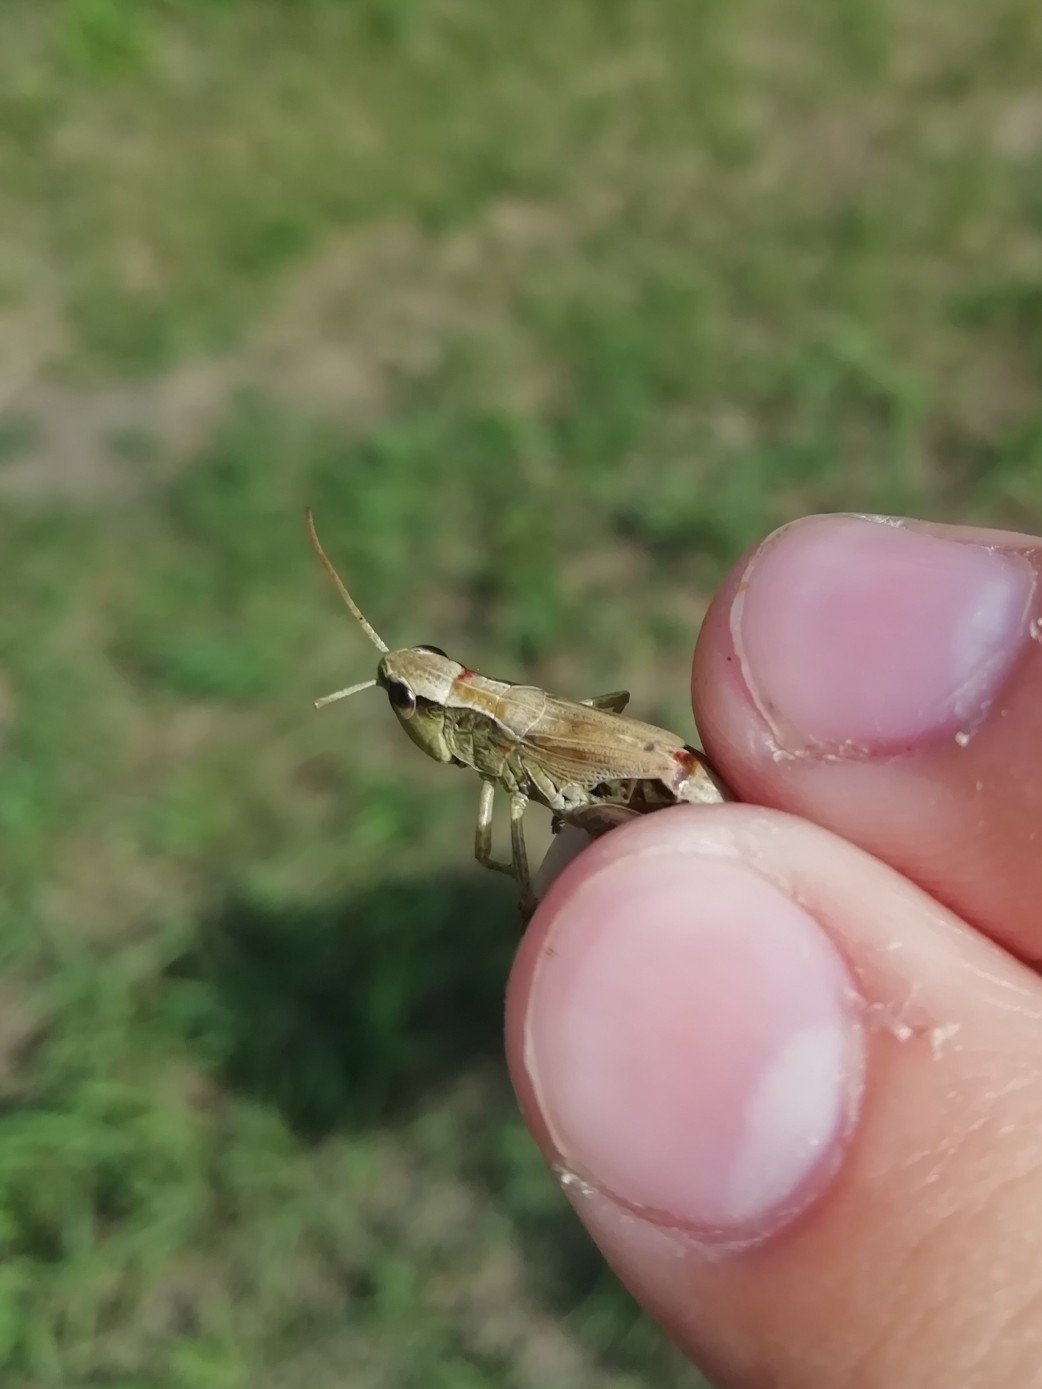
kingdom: Animalia
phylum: Arthropoda
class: Insecta
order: Orthoptera
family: Acrididae
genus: Pseudochorthippus
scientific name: Pseudochorthippus parallelus
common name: Meadow grasshopper
